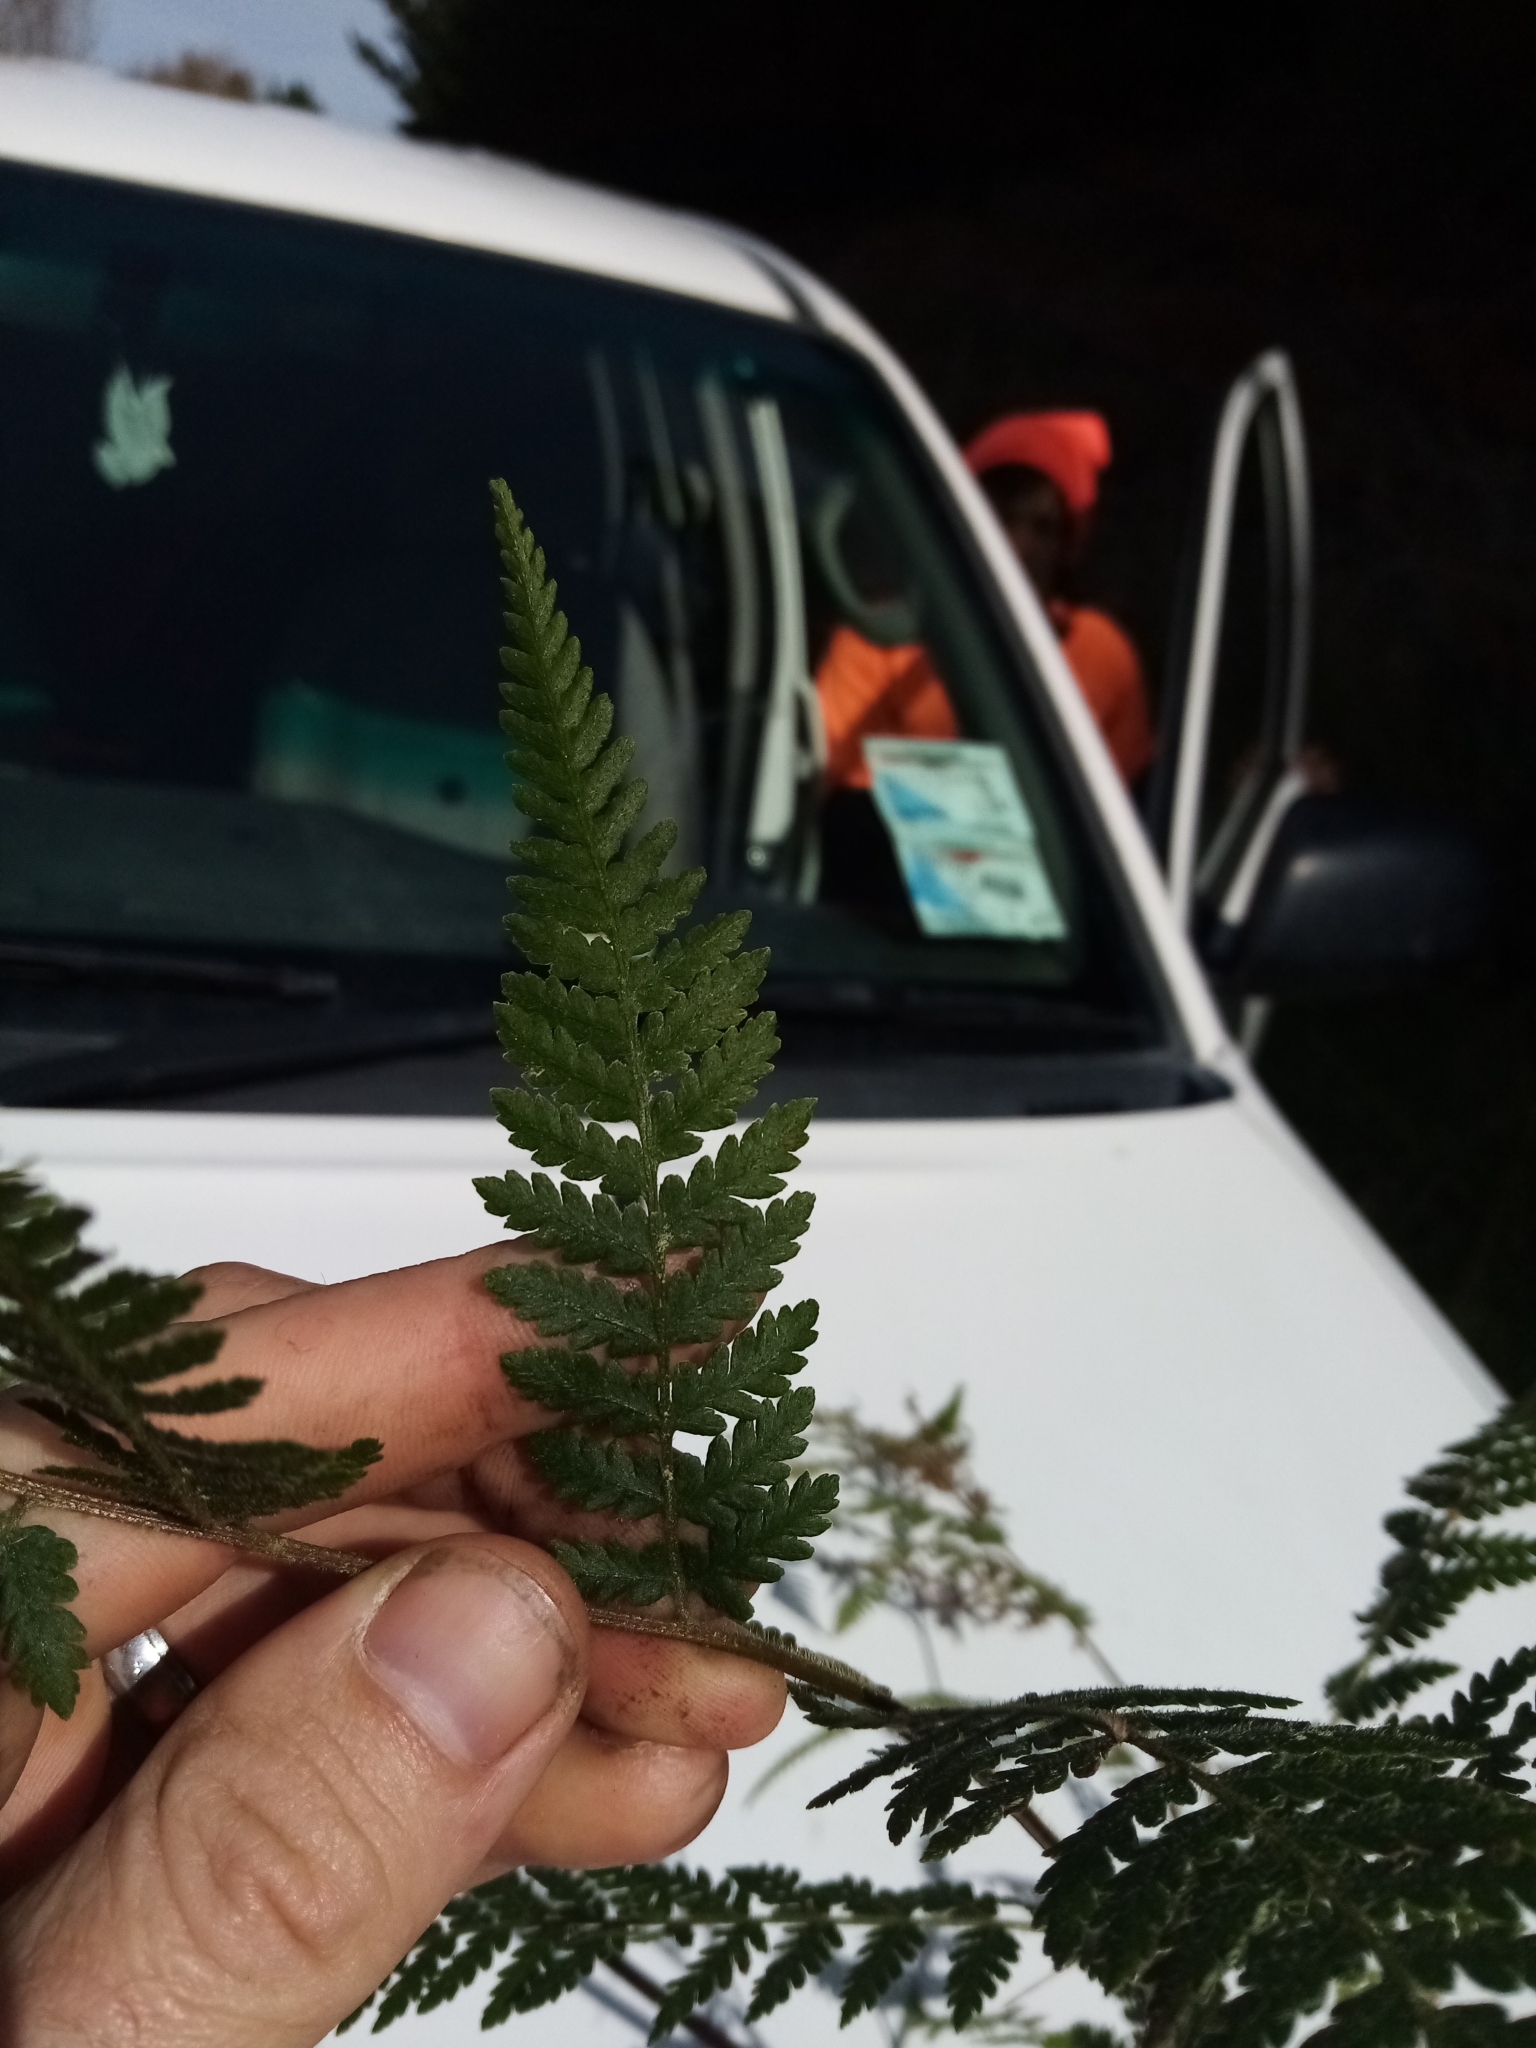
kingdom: Plantae
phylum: Tracheophyta
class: Polypodiopsida
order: Polypodiales
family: Dennstaedtiaceae
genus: Hypolepis
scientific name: Hypolepis ambigua
